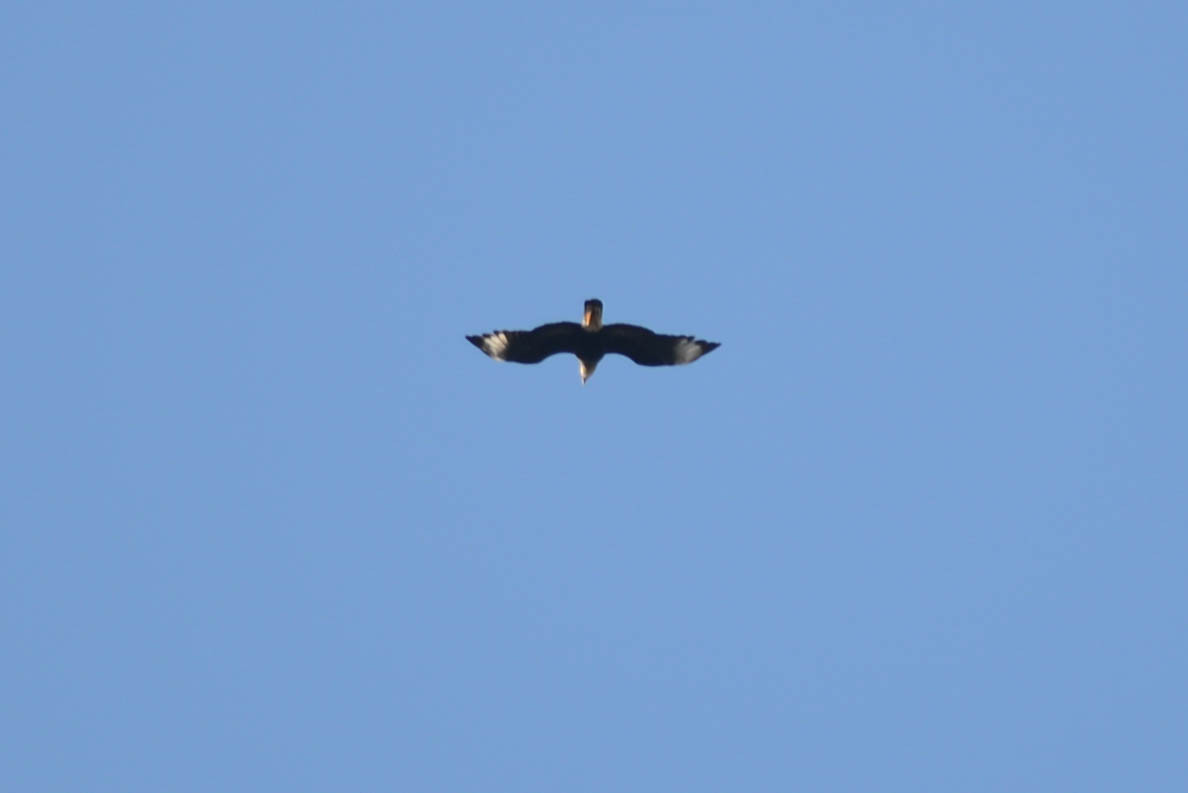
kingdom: Animalia
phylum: Chordata
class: Aves
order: Falconiformes
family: Falconidae
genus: Caracara
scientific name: Caracara plancus
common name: Southern caracara
